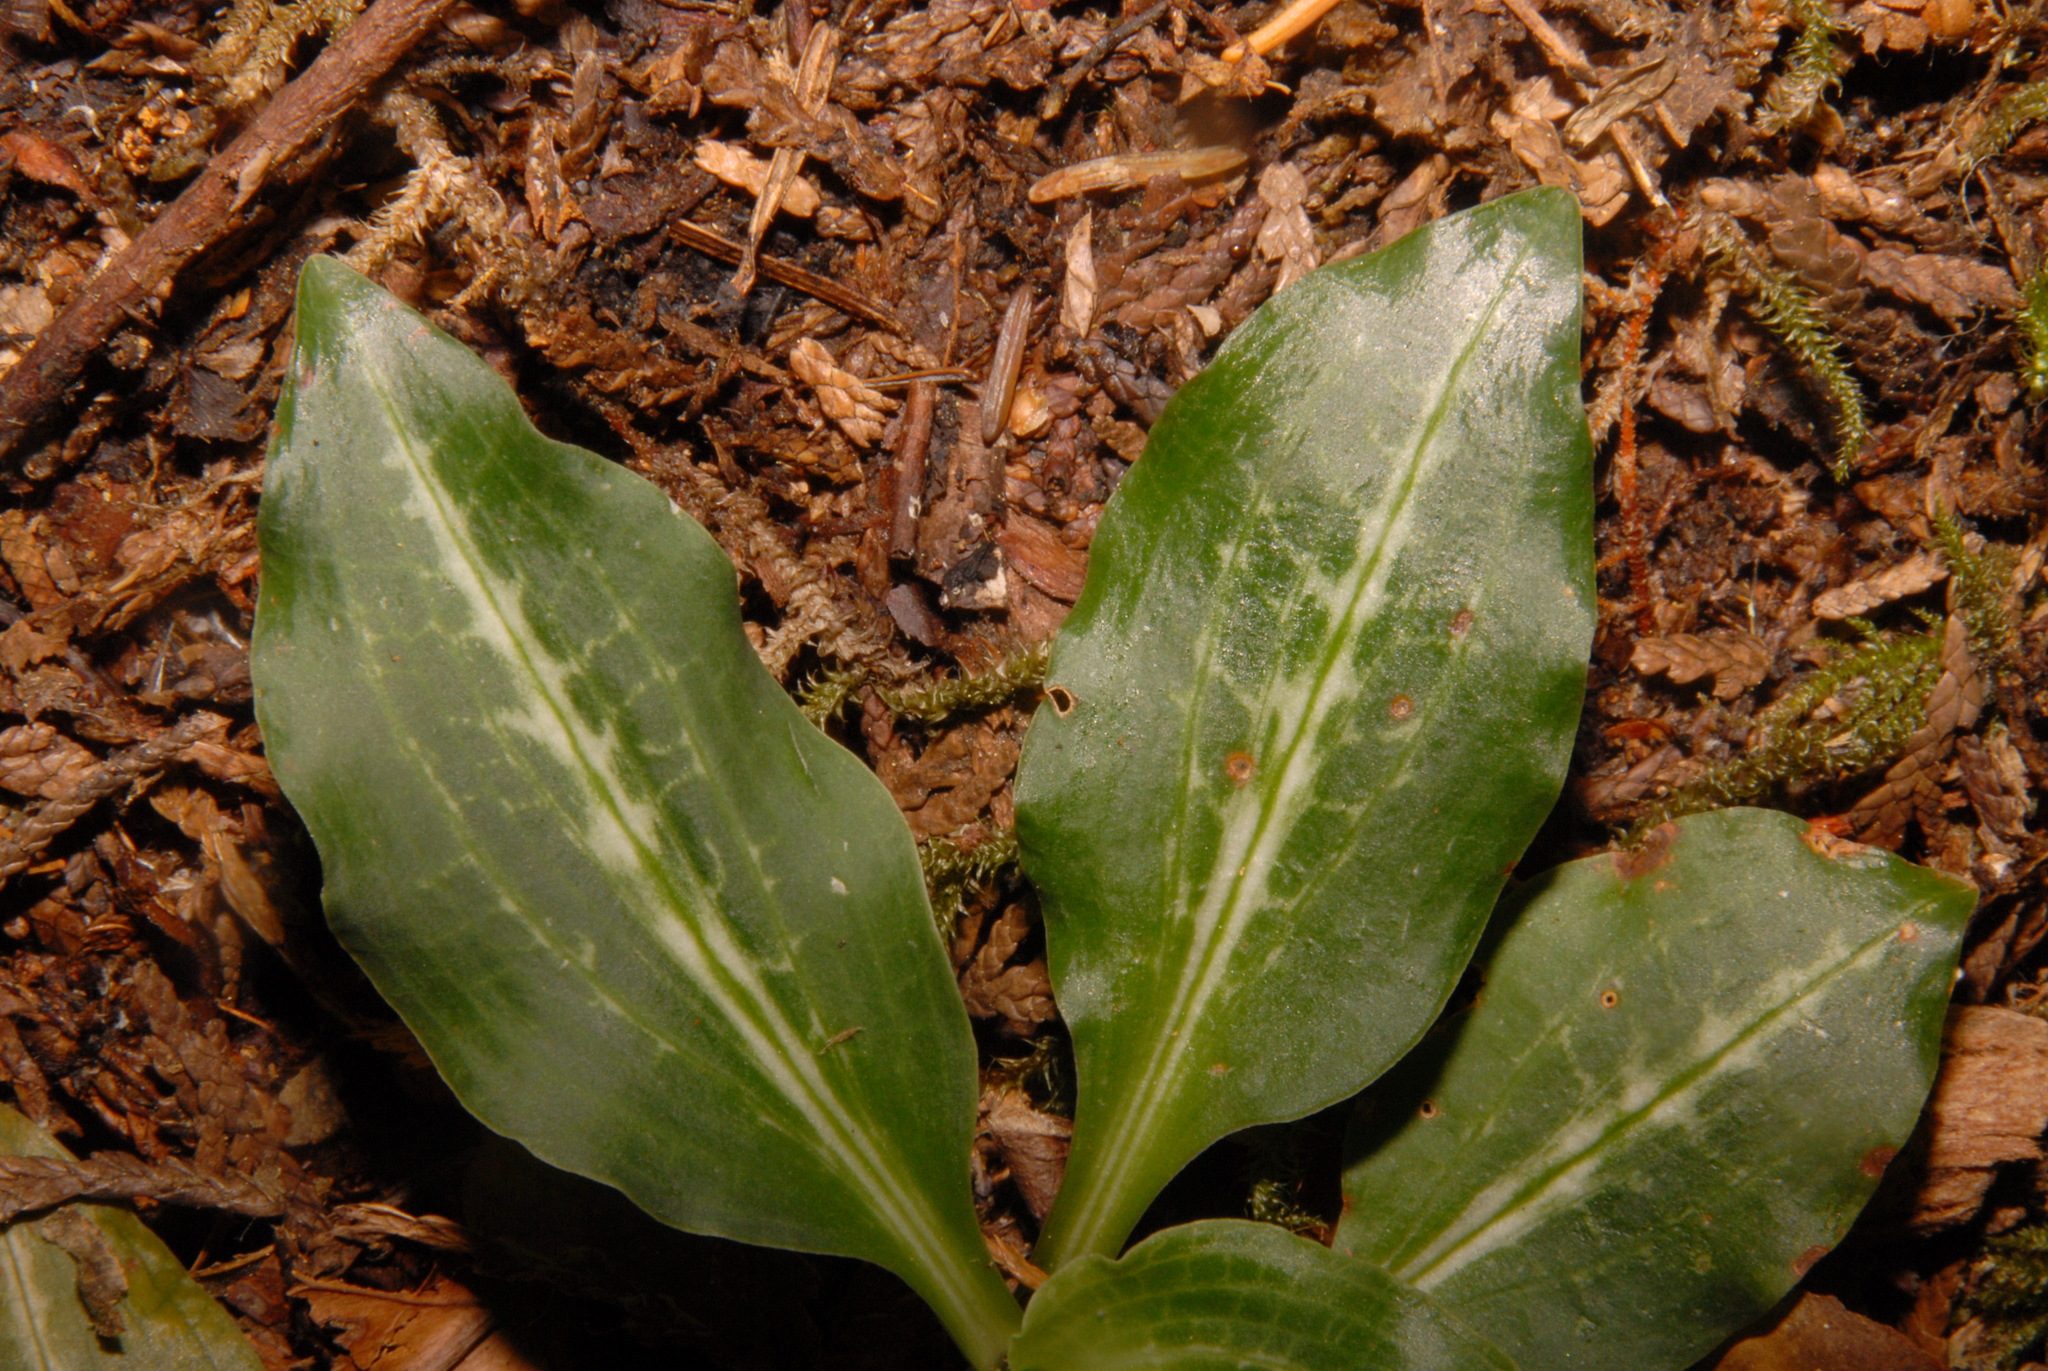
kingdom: Plantae
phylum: Tracheophyta
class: Liliopsida
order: Asparagales
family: Orchidaceae
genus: Goodyera
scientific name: Goodyera oblongifolia
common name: Giant rattlesnake-plantain
